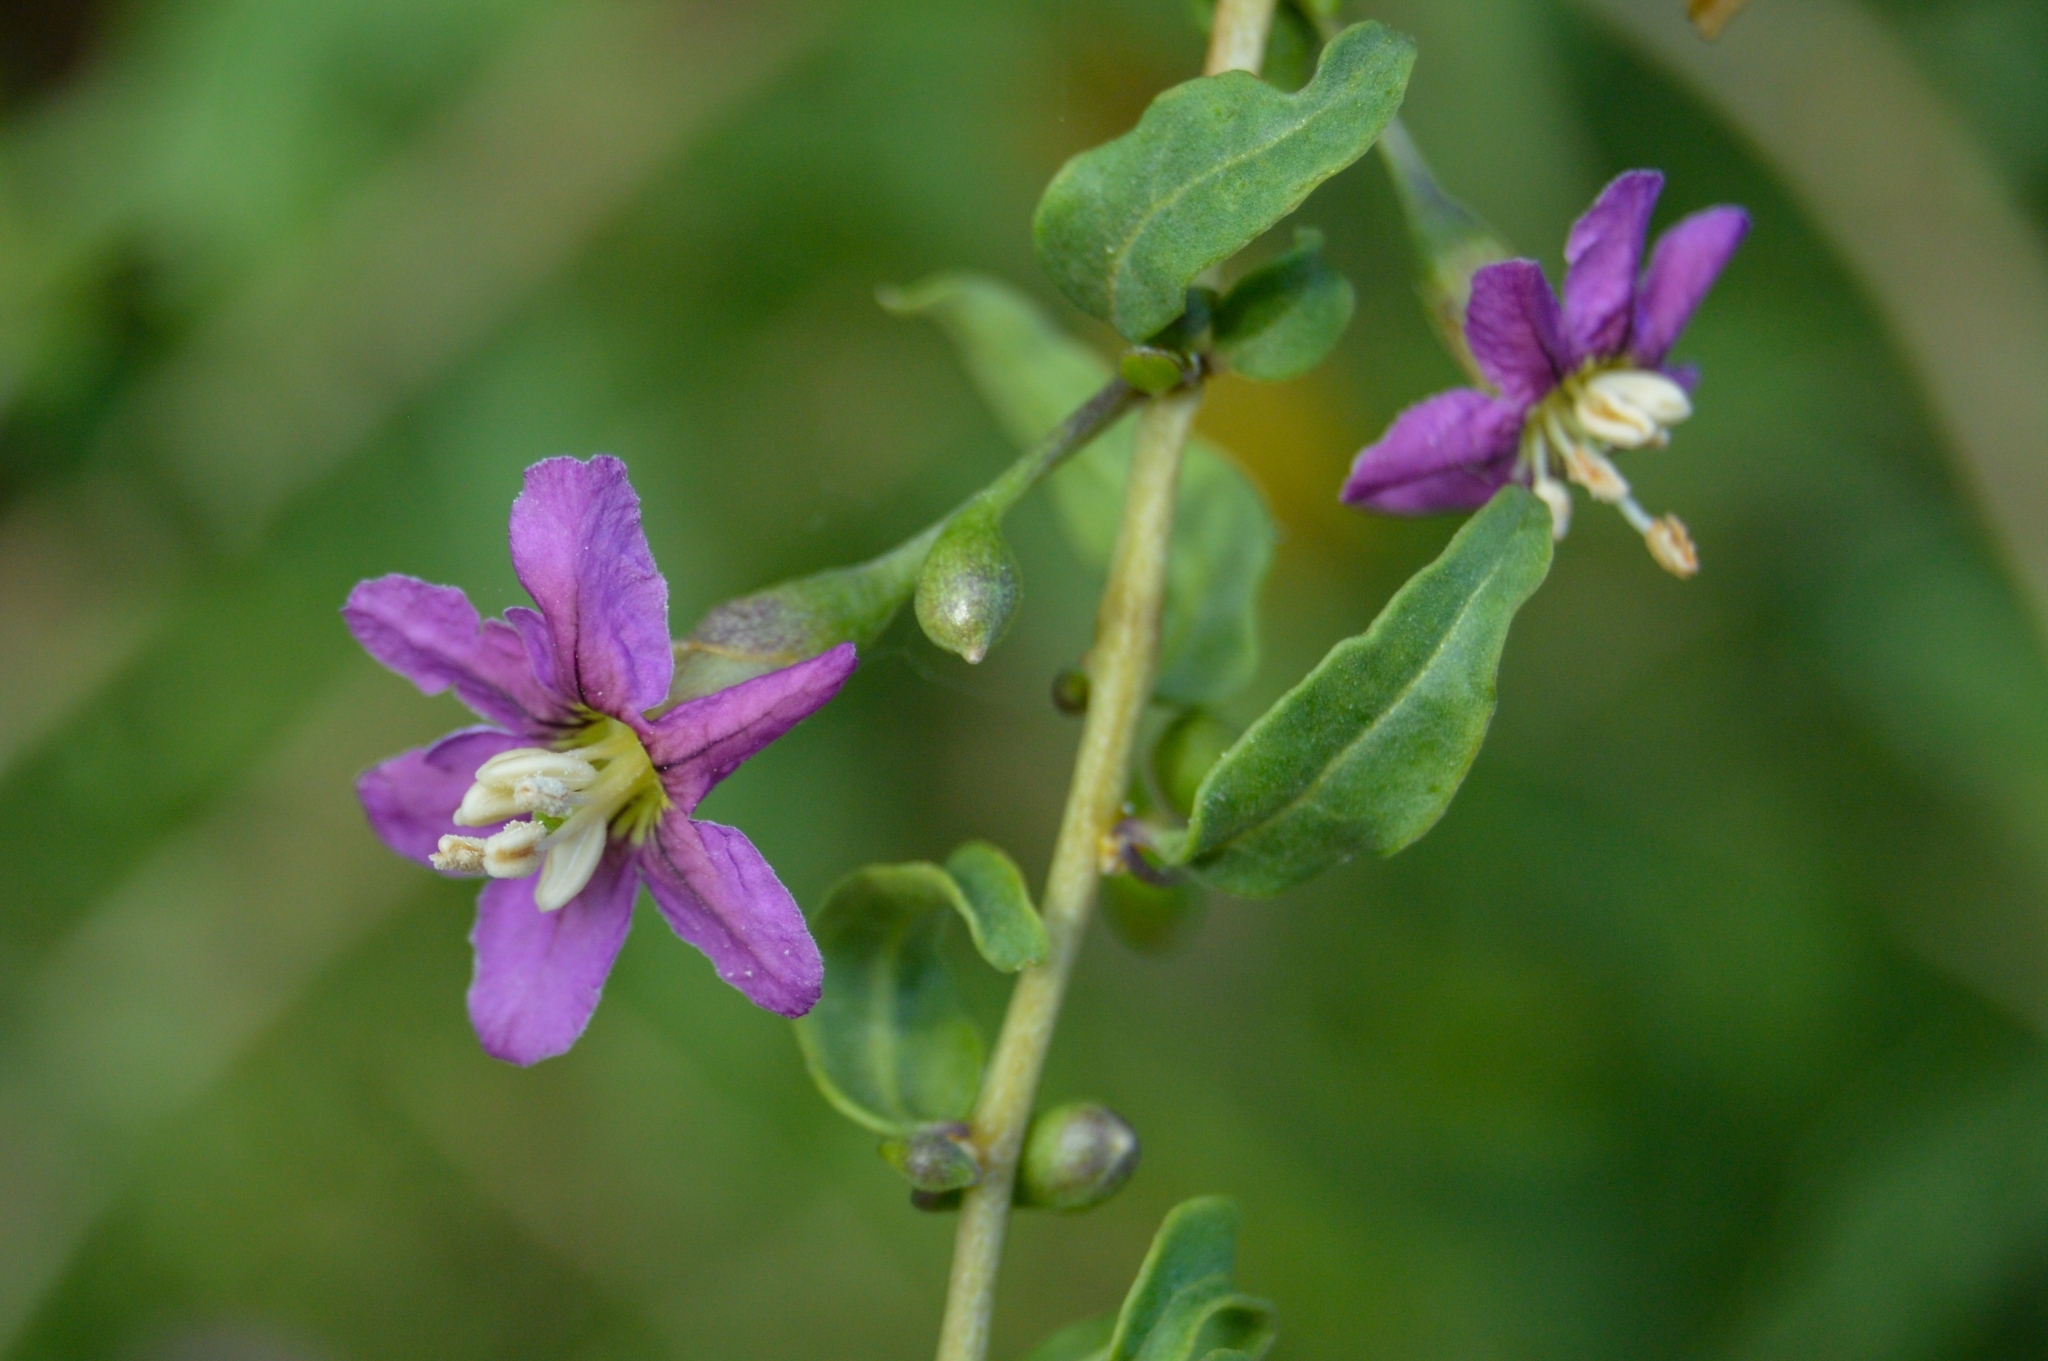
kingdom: Plantae
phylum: Tracheophyta
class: Magnoliopsida
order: Solanales
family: Solanaceae
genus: Lycium
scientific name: Lycium barbarum
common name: Duke of argyll's teaplant
